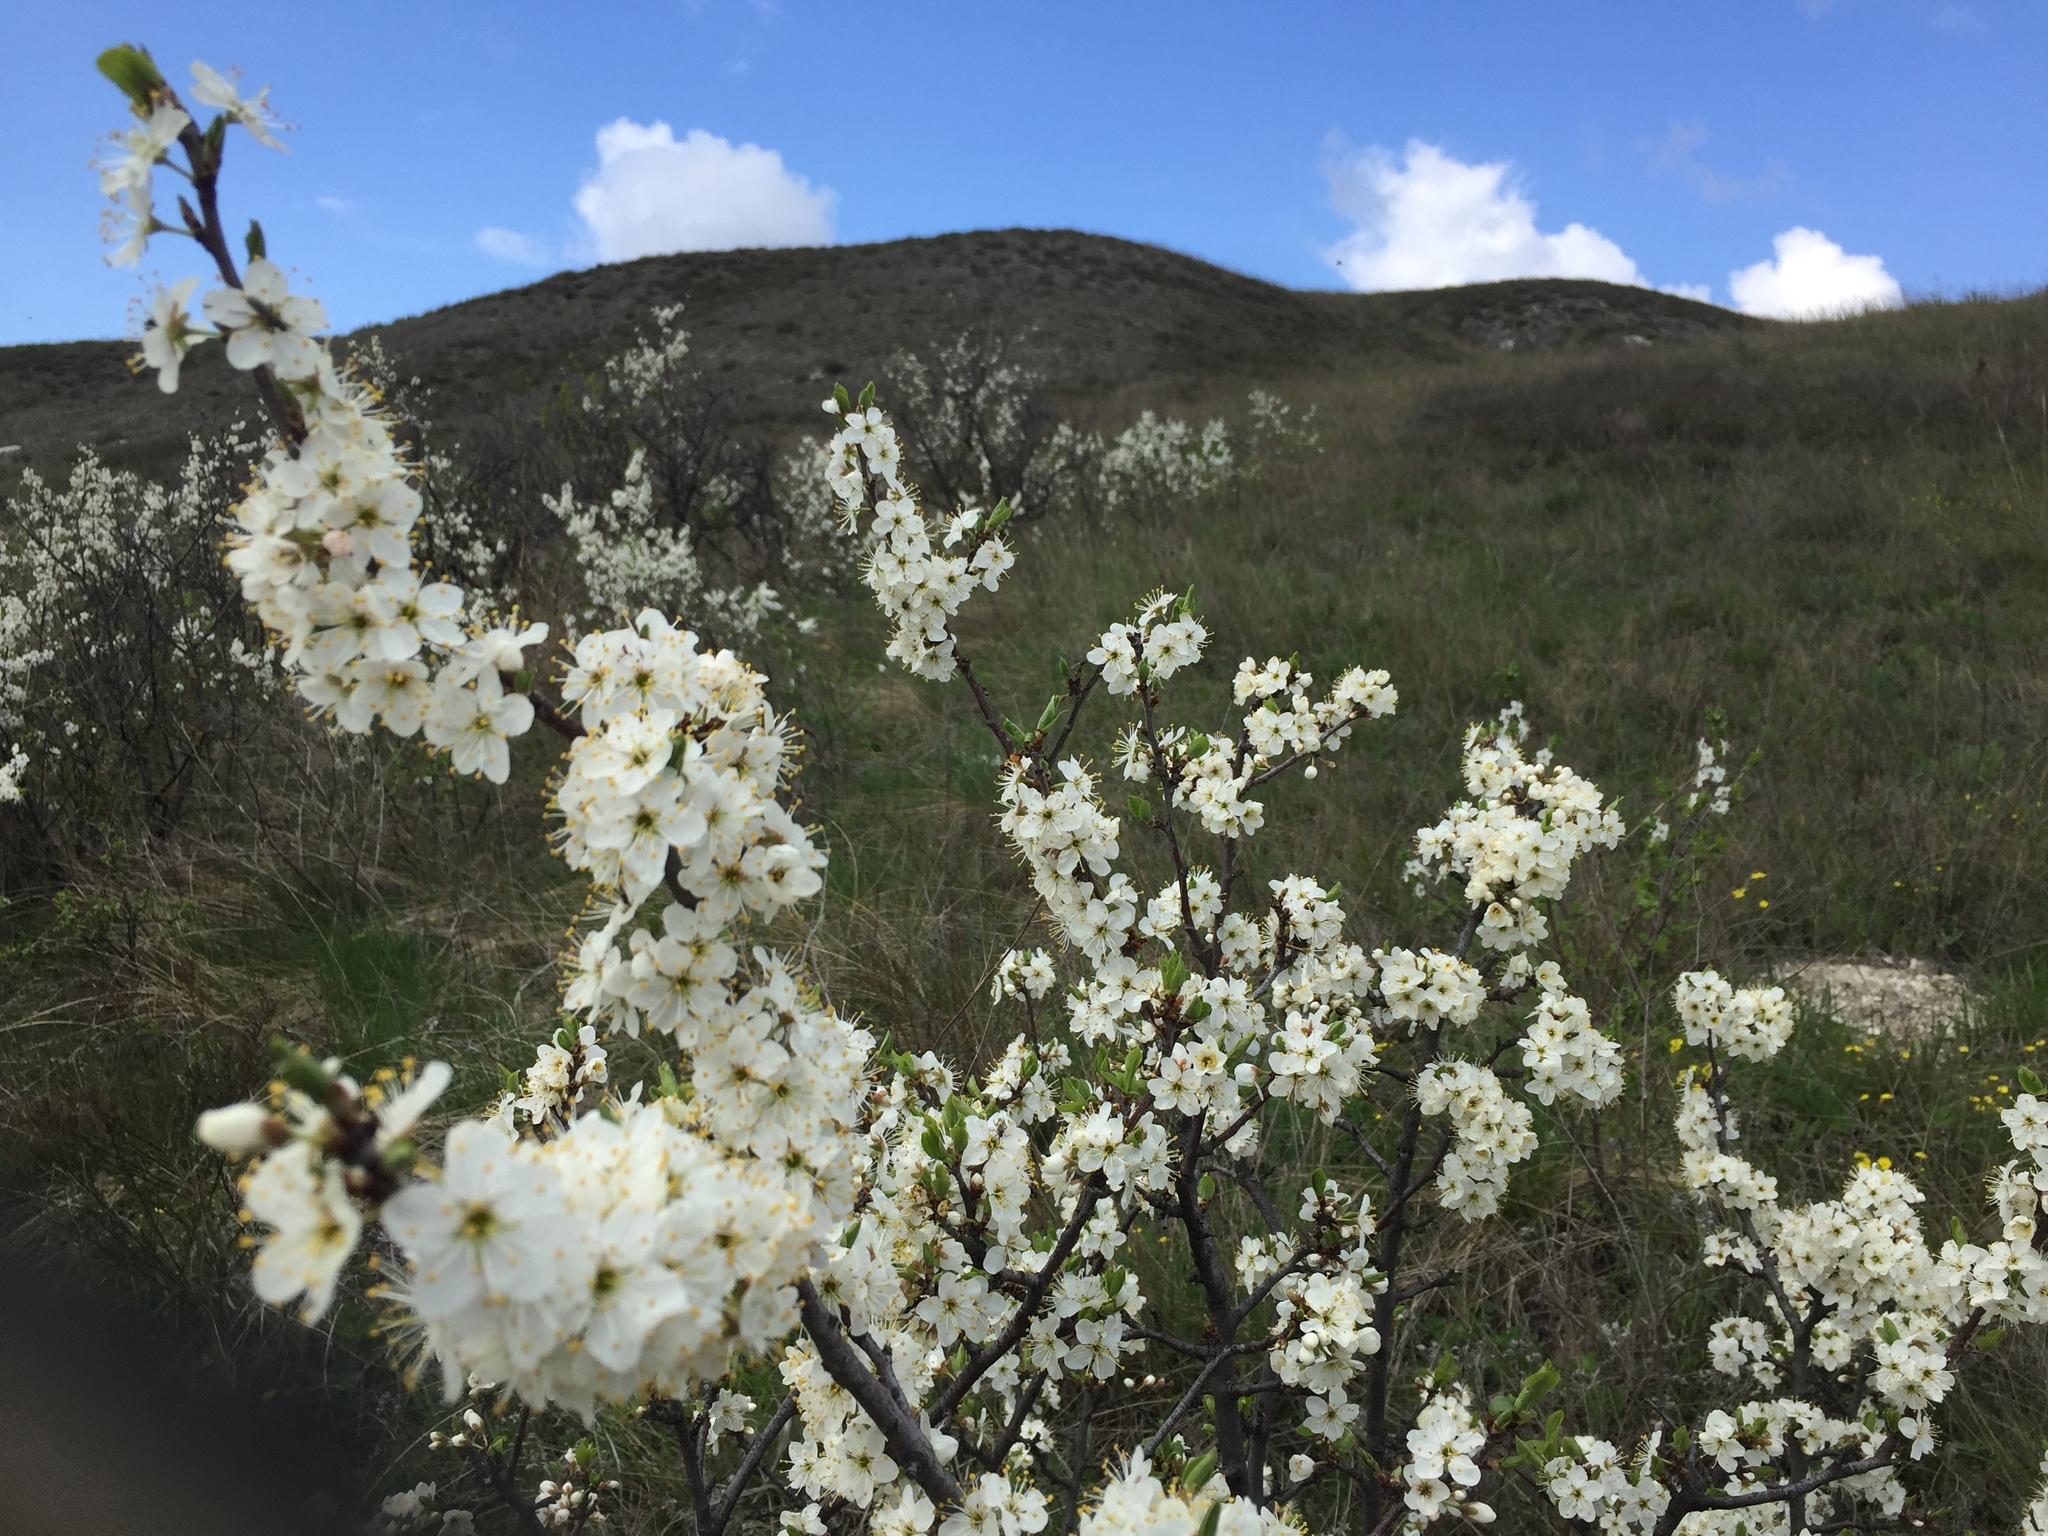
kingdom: Plantae
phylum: Tracheophyta
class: Magnoliopsida
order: Rosales
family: Rosaceae
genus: Prunus
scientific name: Prunus spinosa
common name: Blackthorn
